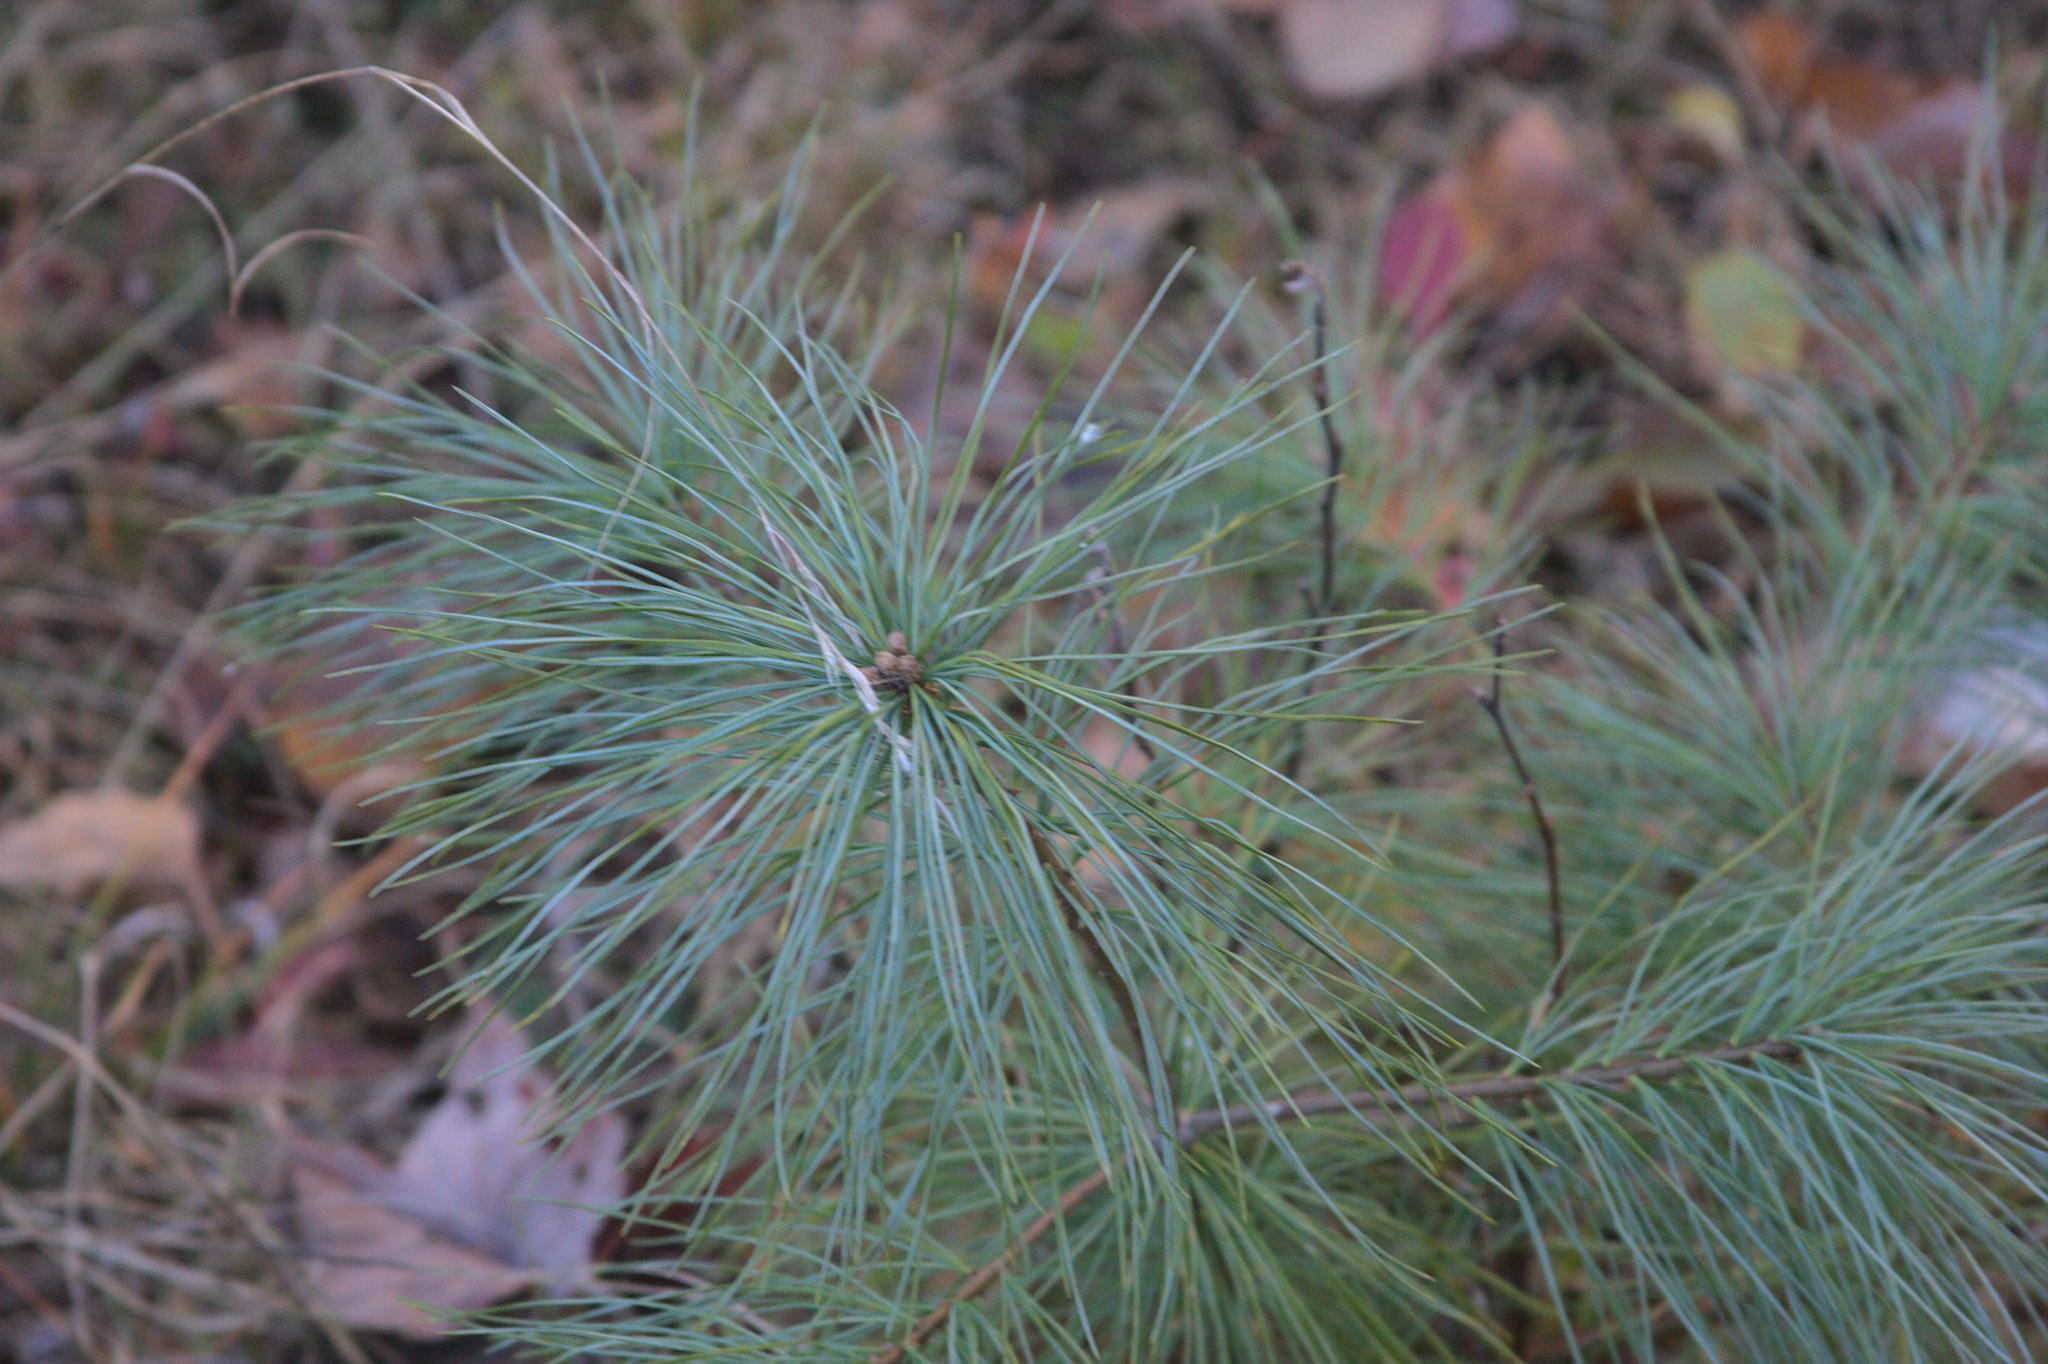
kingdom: Plantae
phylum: Tracheophyta
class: Pinopsida
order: Pinales
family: Pinaceae
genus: Pinus
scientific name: Pinus strobus
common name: Weymouth pine
